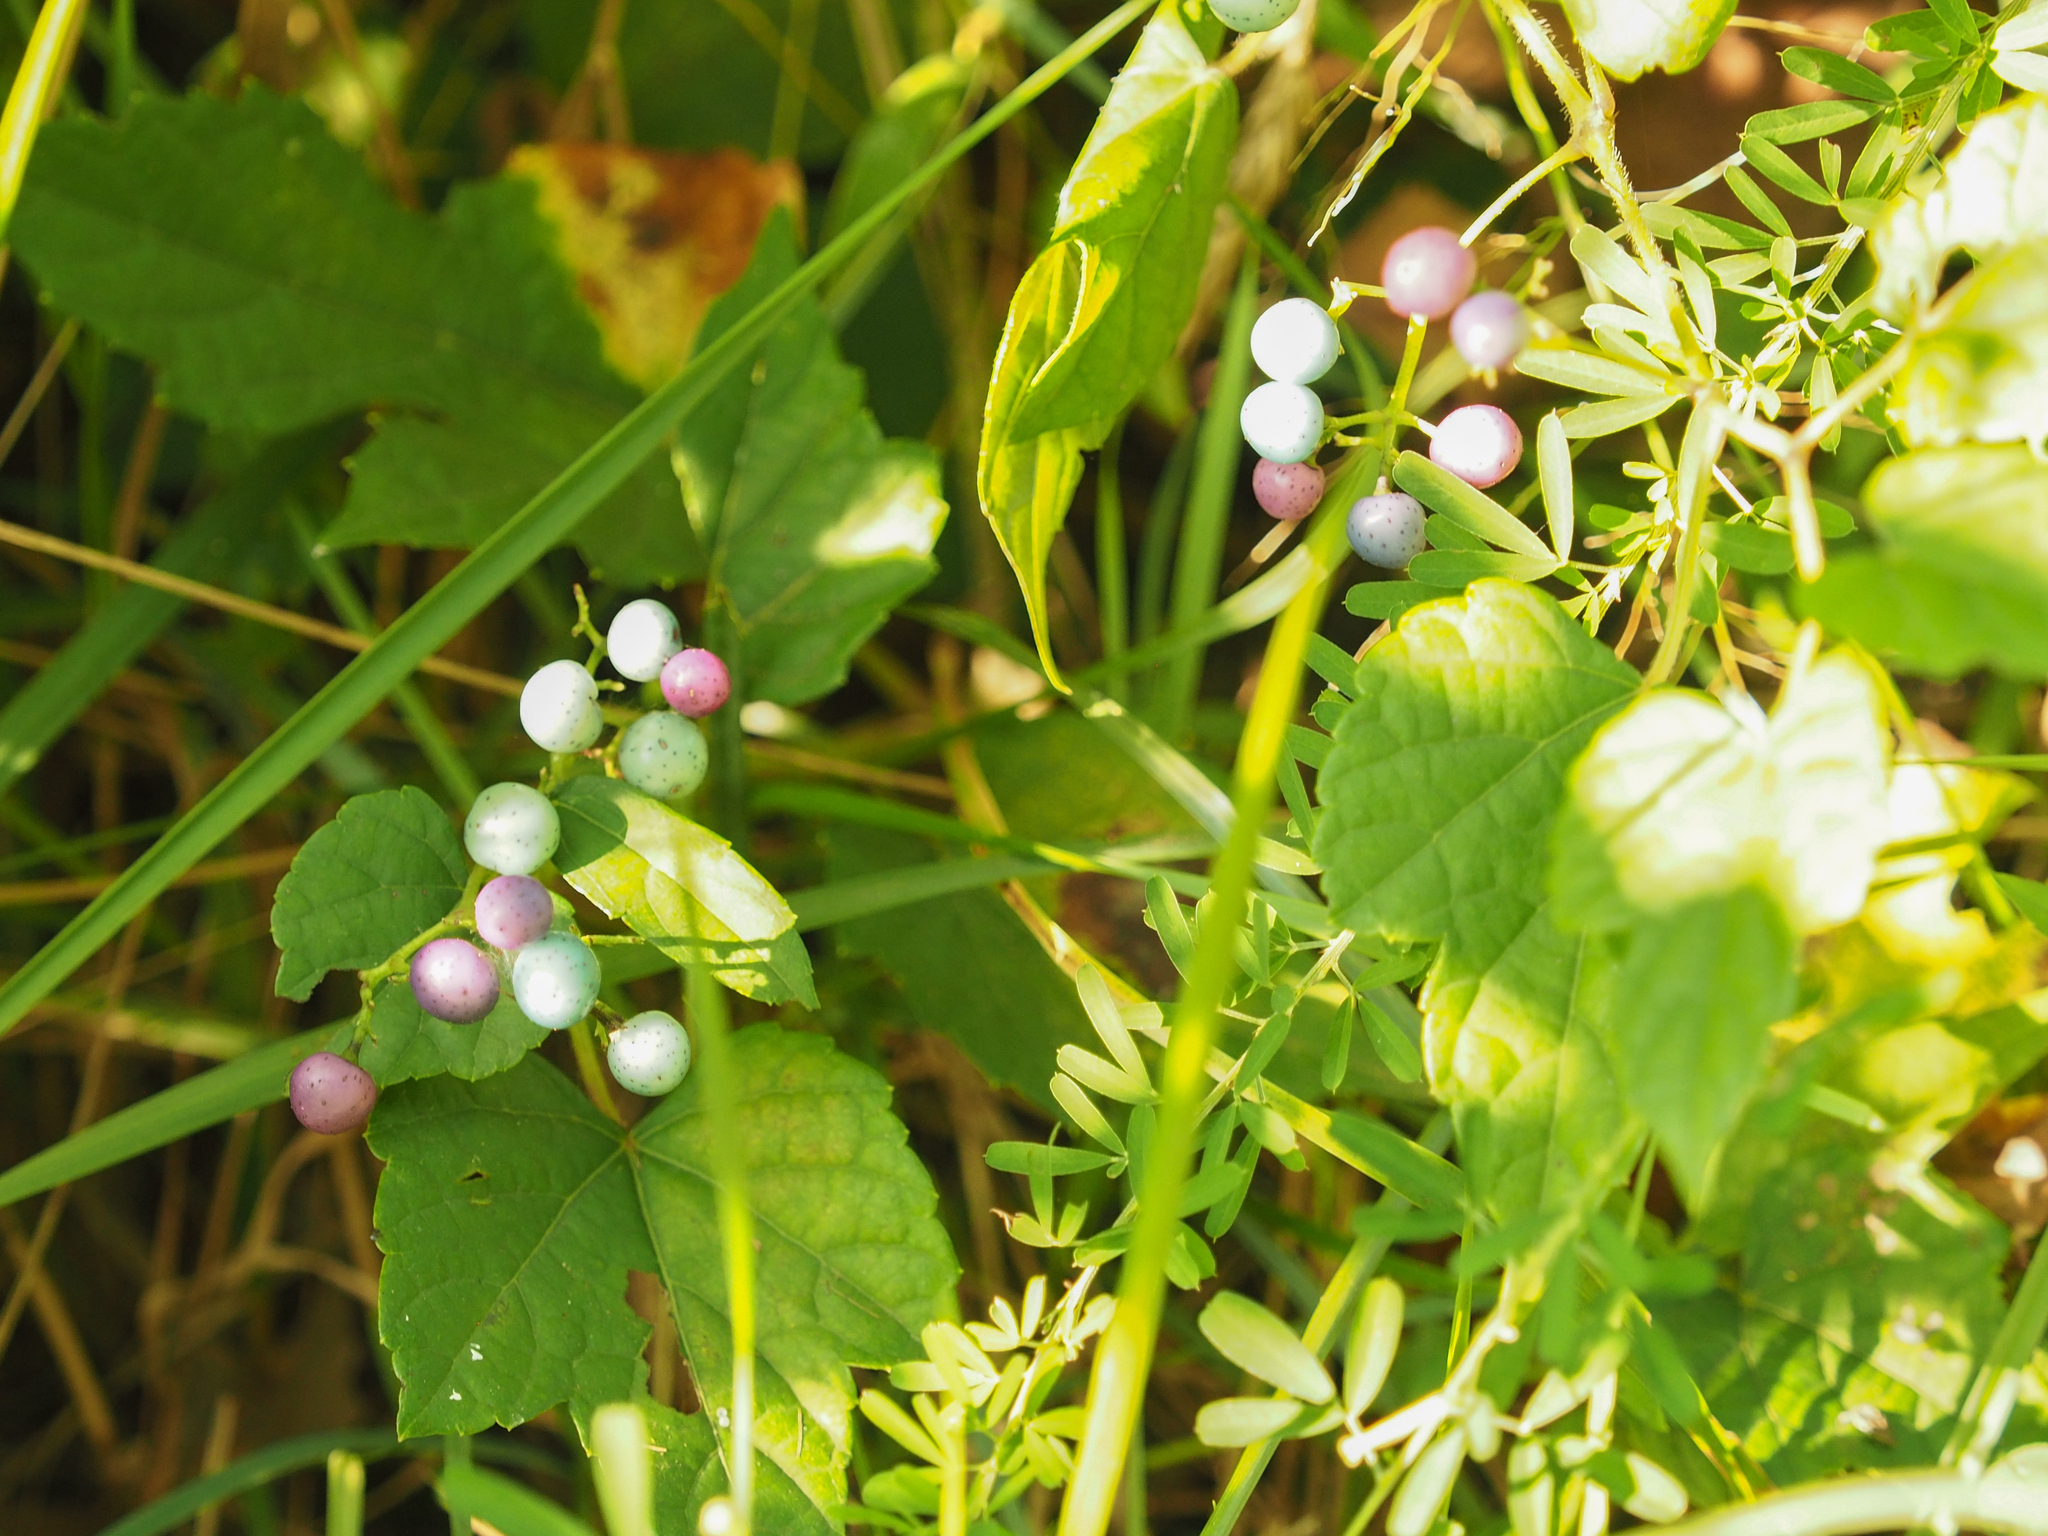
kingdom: Plantae
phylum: Tracheophyta
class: Magnoliopsida
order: Vitales
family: Vitaceae
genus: Ampelopsis
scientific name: Ampelopsis glandulosa
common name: Amur peppervine
